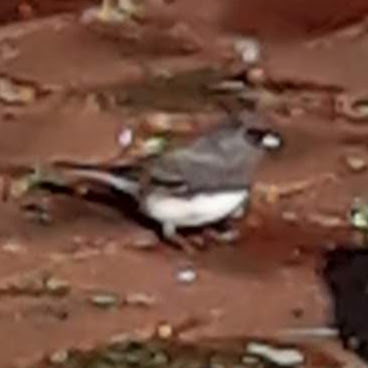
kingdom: Animalia
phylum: Chordata
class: Aves
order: Passeriformes
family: Passerellidae
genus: Junco
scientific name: Junco hyemalis
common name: Dark-eyed junco
